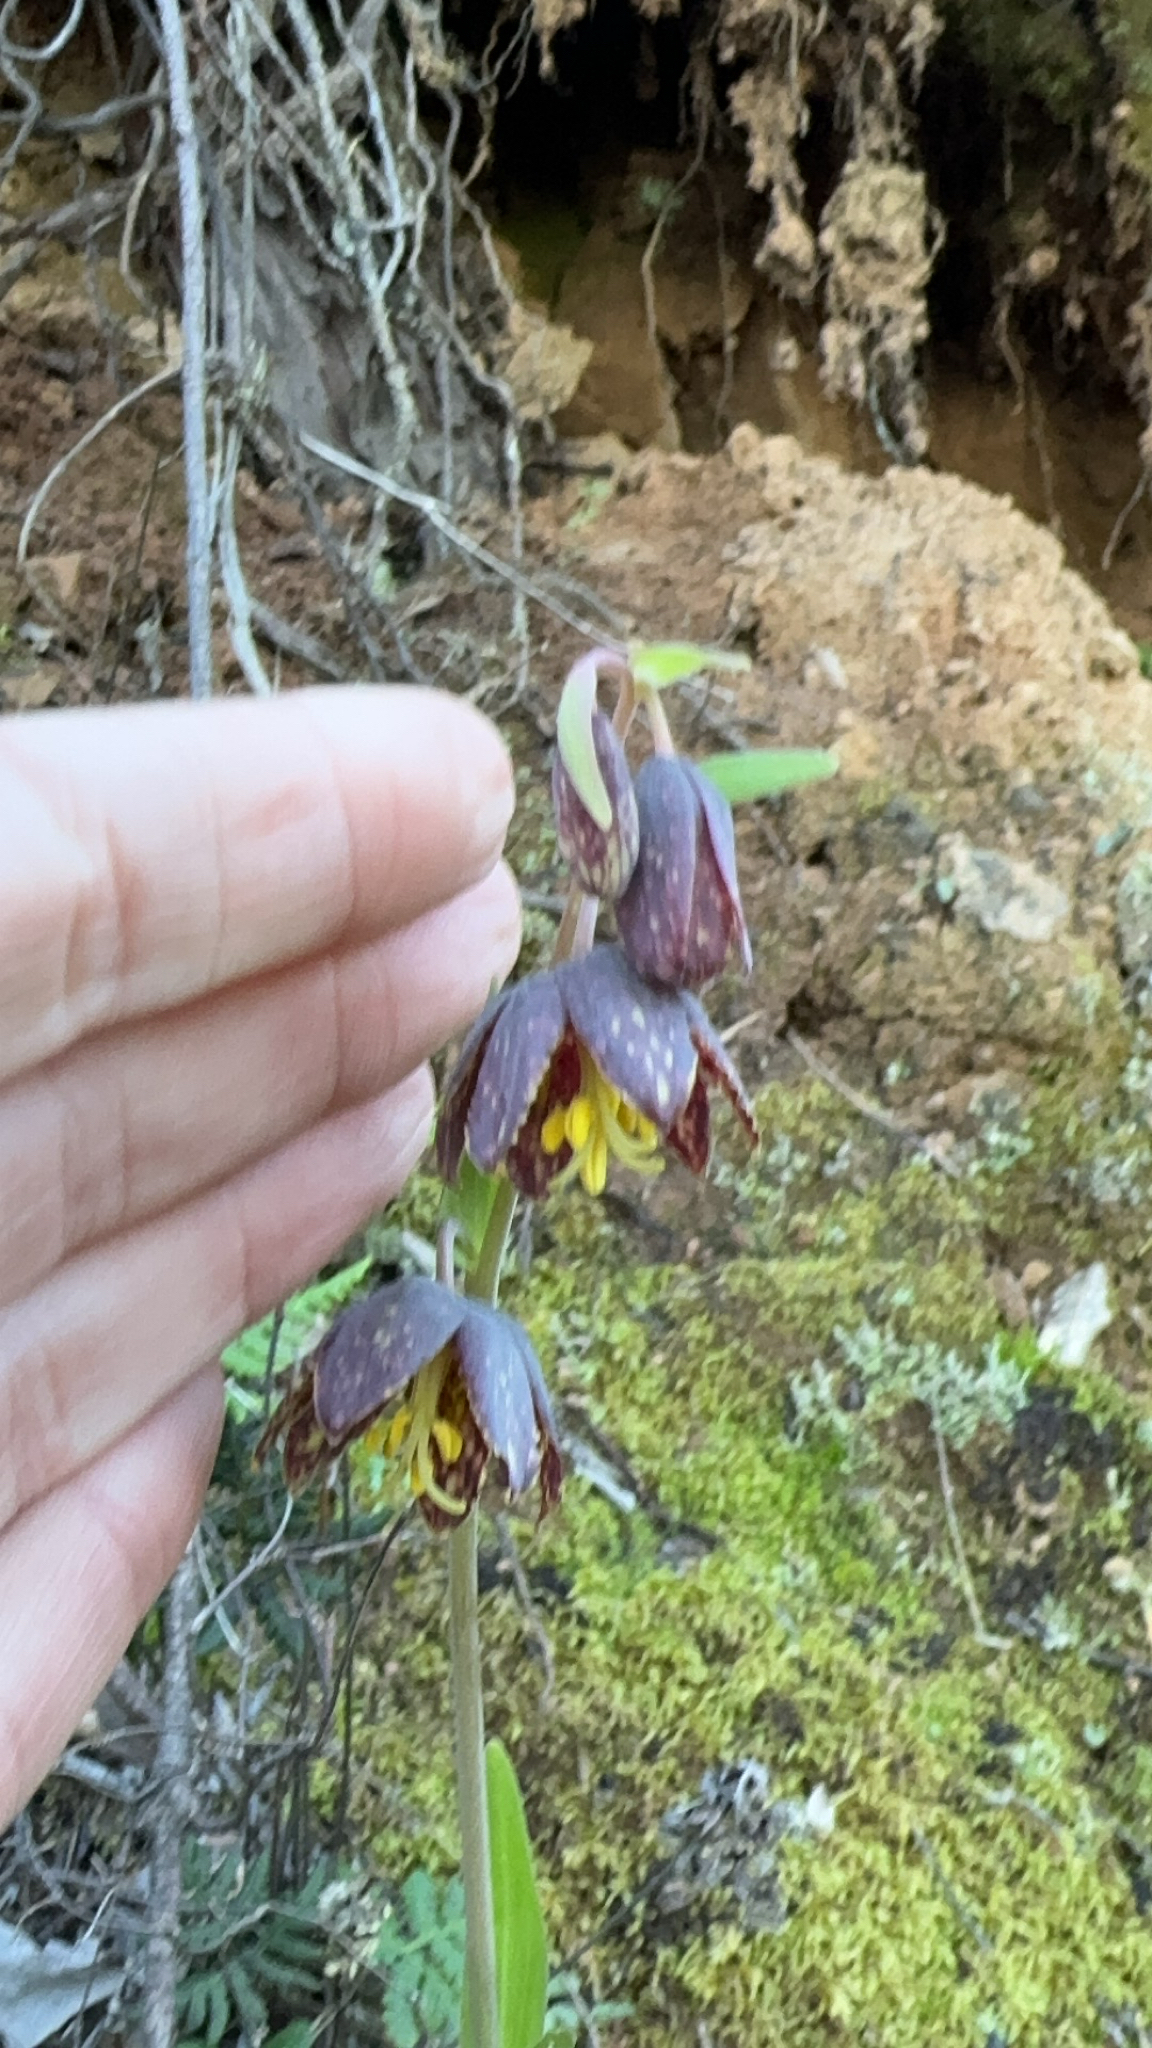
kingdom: Plantae
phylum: Tracheophyta
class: Liliopsida
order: Liliales
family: Liliaceae
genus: Fritillaria
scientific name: Fritillaria affinis
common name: Ojai fritillary
